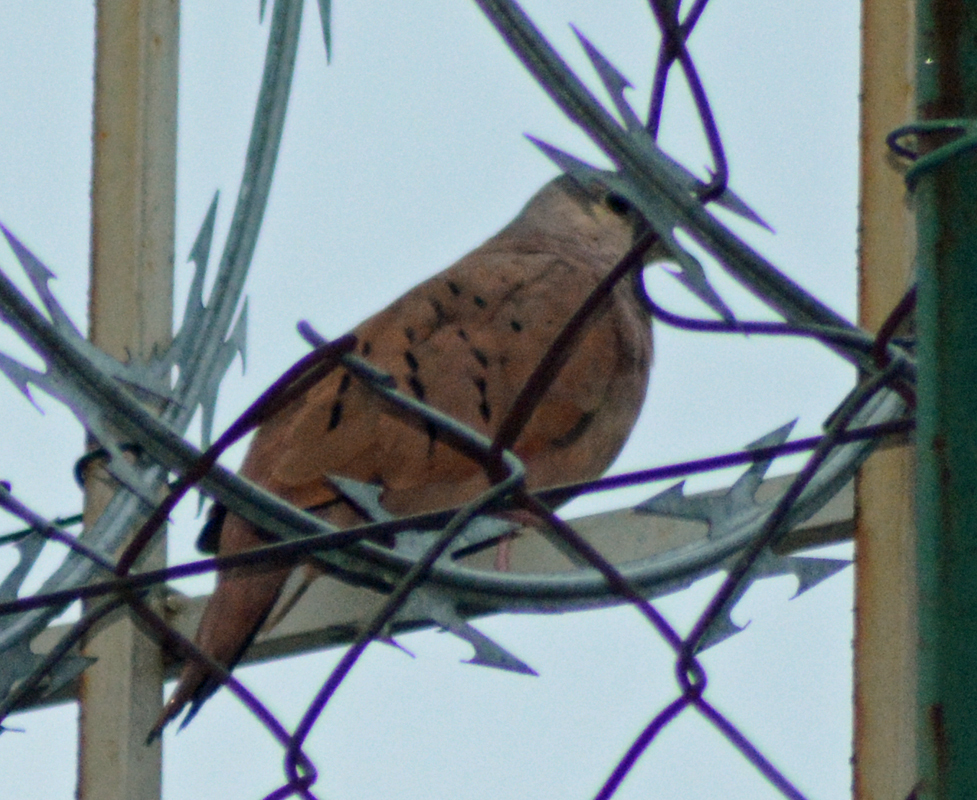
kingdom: Animalia
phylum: Chordata
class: Aves
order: Columbiformes
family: Columbidae
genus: Columbina
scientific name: Columbina talpacoti
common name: Ruddy ground dove
